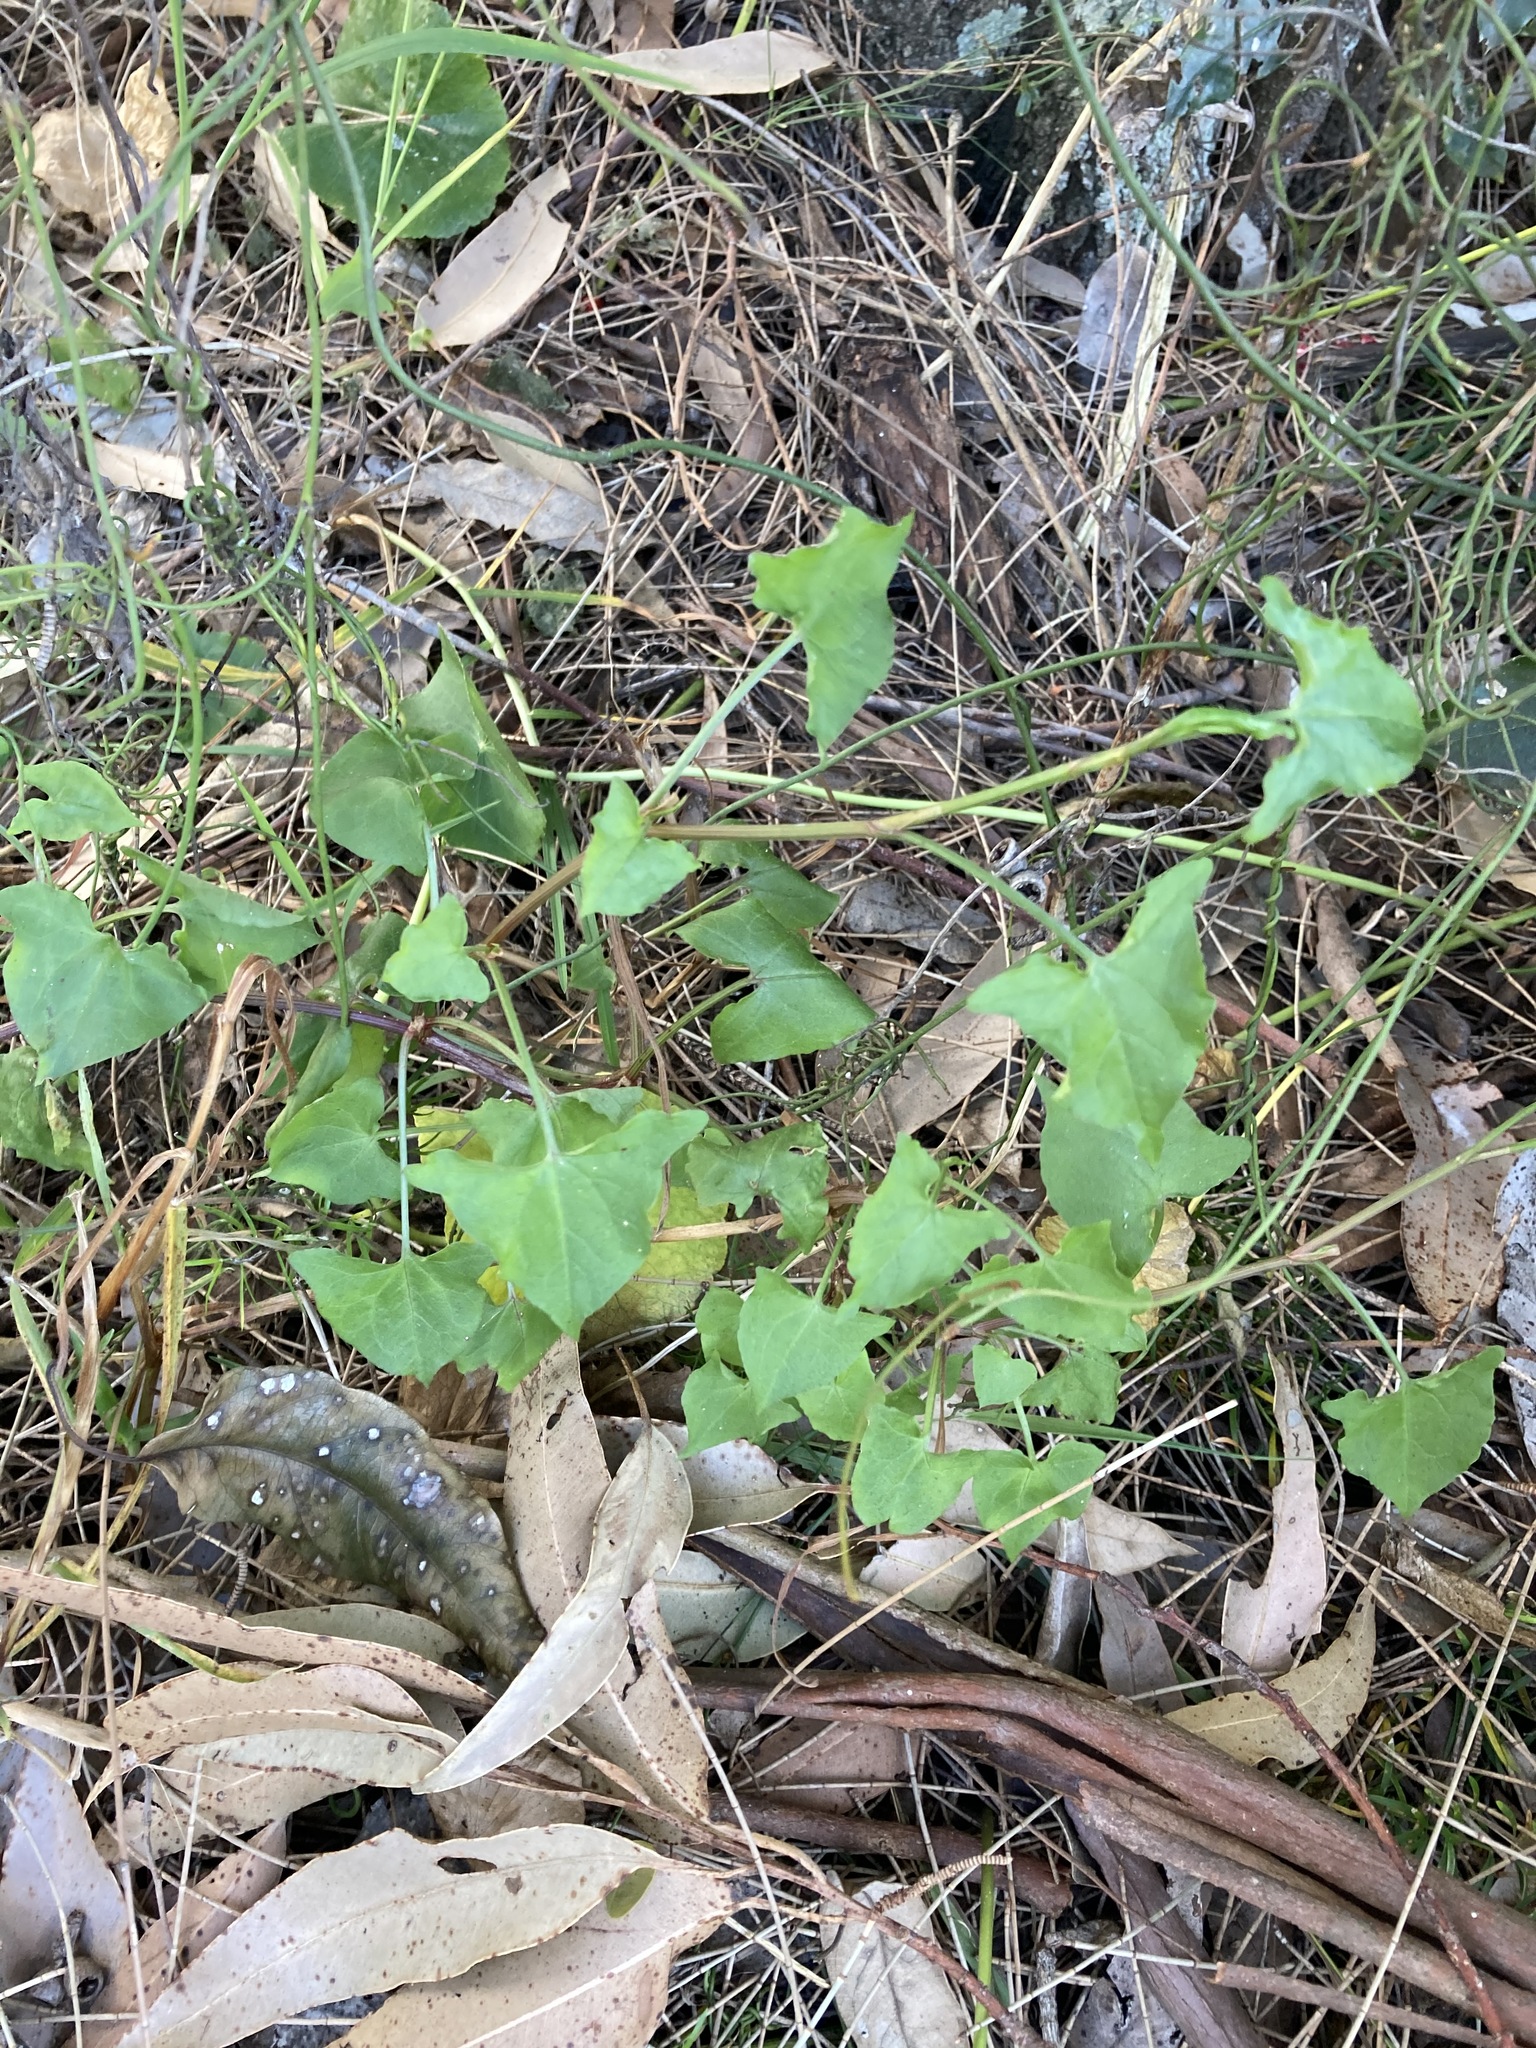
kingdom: Plantae
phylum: Tracheophyta
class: Magnoliopsida
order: Caryophyllales
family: Polygonaceae
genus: Rumex
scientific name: Rumex sagittatus
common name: Climbing dock
